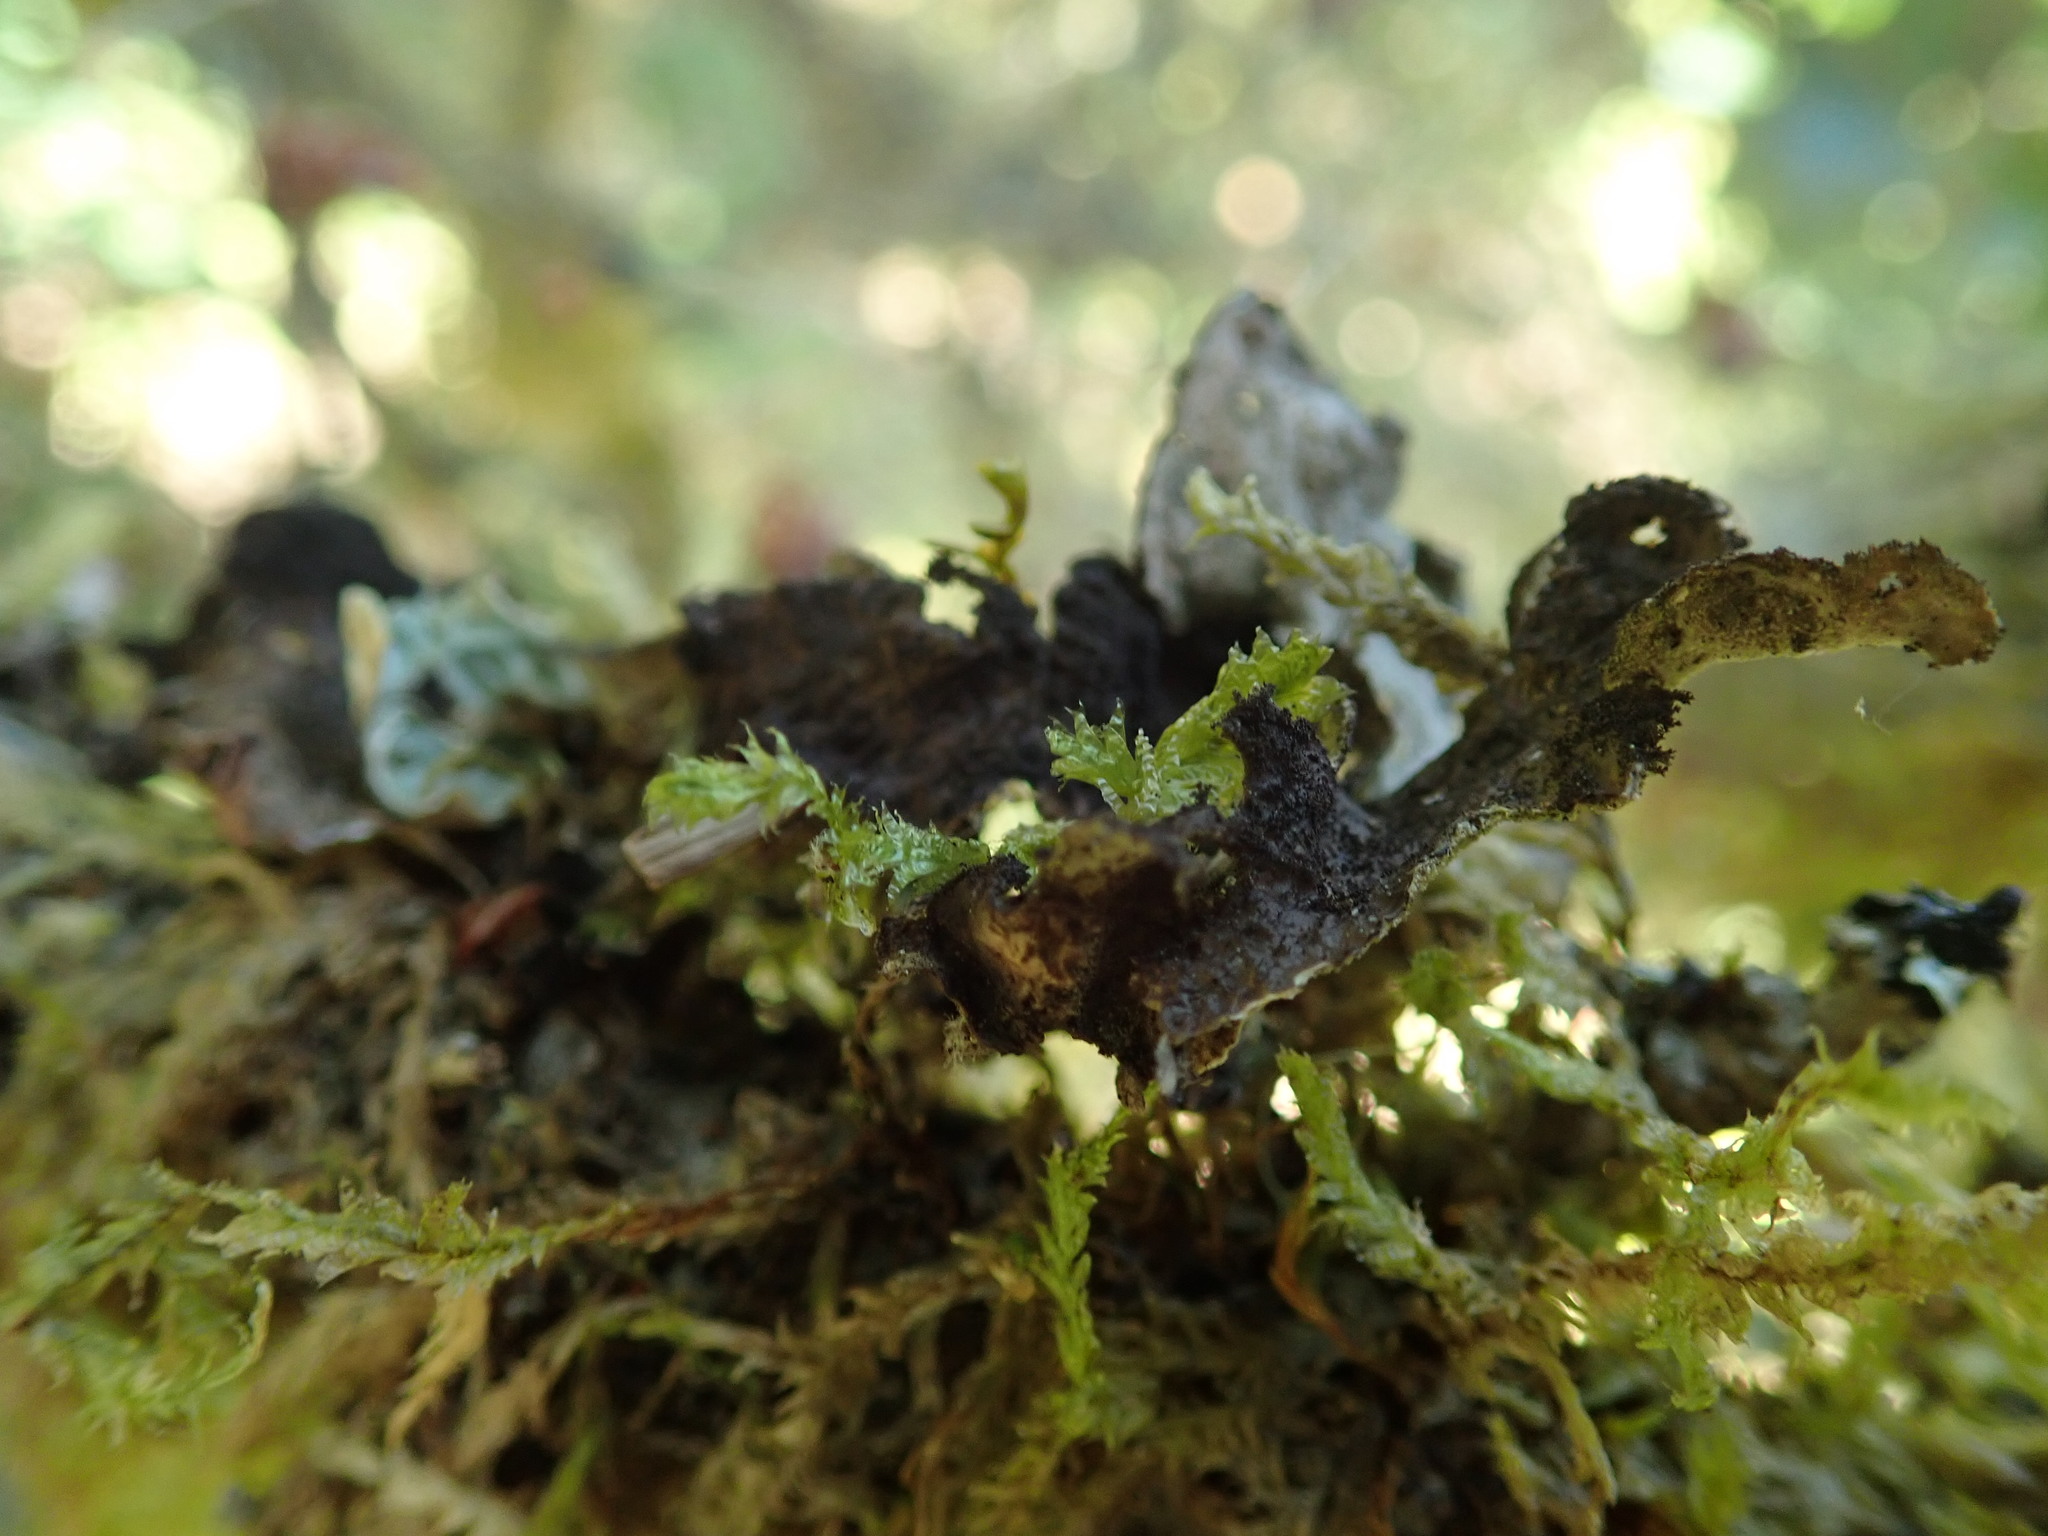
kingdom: Fungi
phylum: Ascomycota
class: Lecanoromycetes
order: Peltigerales
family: Lobariaceae
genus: Sticta
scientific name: Sticta fuliginosa
